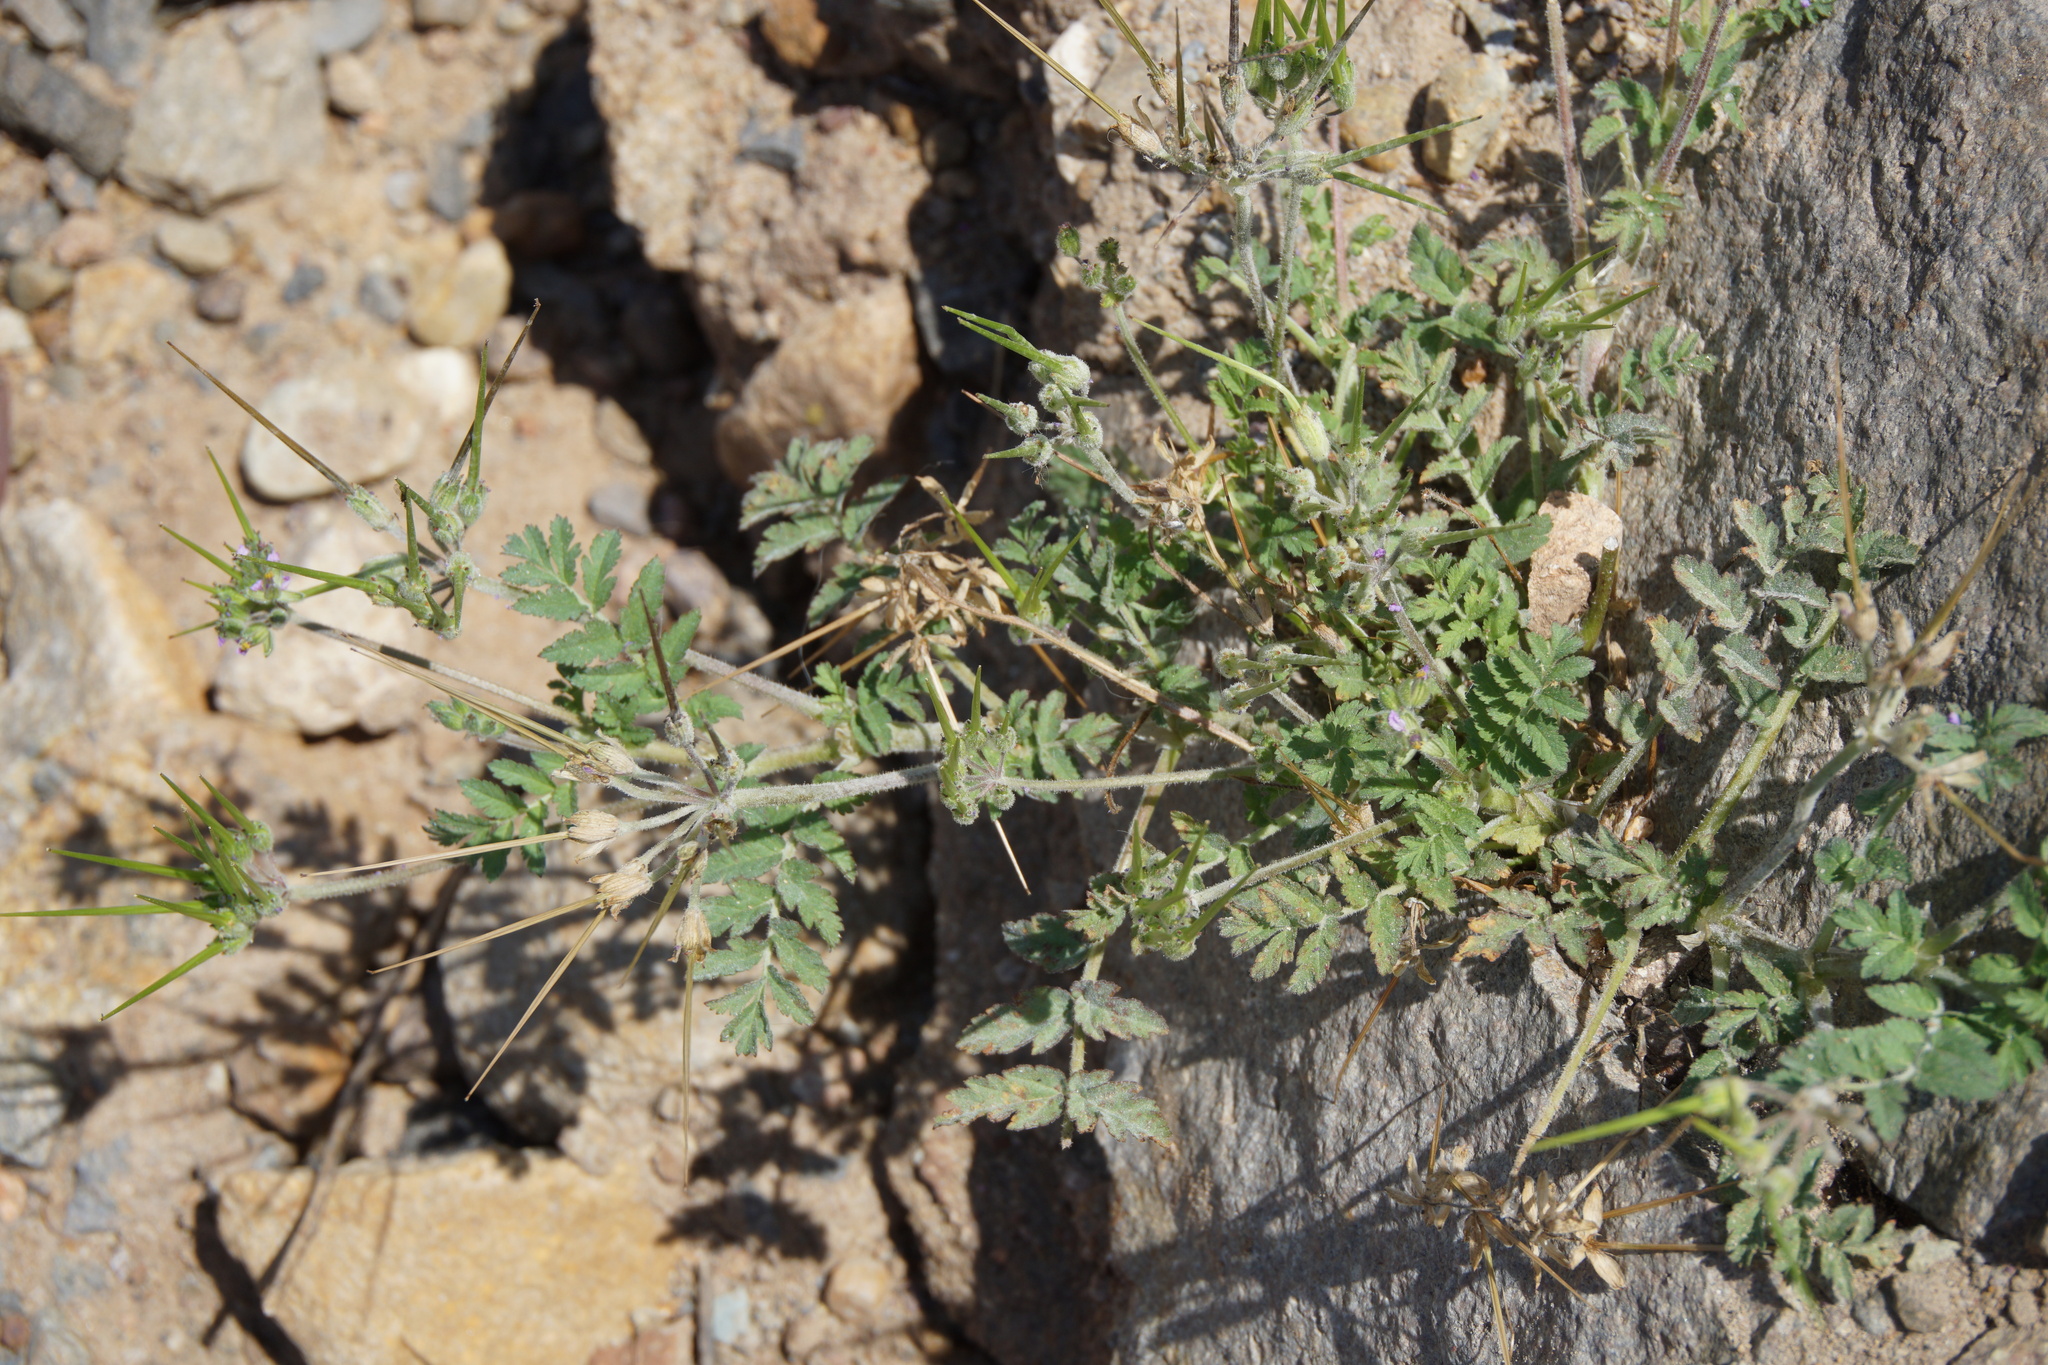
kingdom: Plantae
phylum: Tracheophyta
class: Magnoliopsida
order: Geraniales
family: Geraniaceae
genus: Erodium
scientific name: Erodium moschatum
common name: Musk stork's-bill
